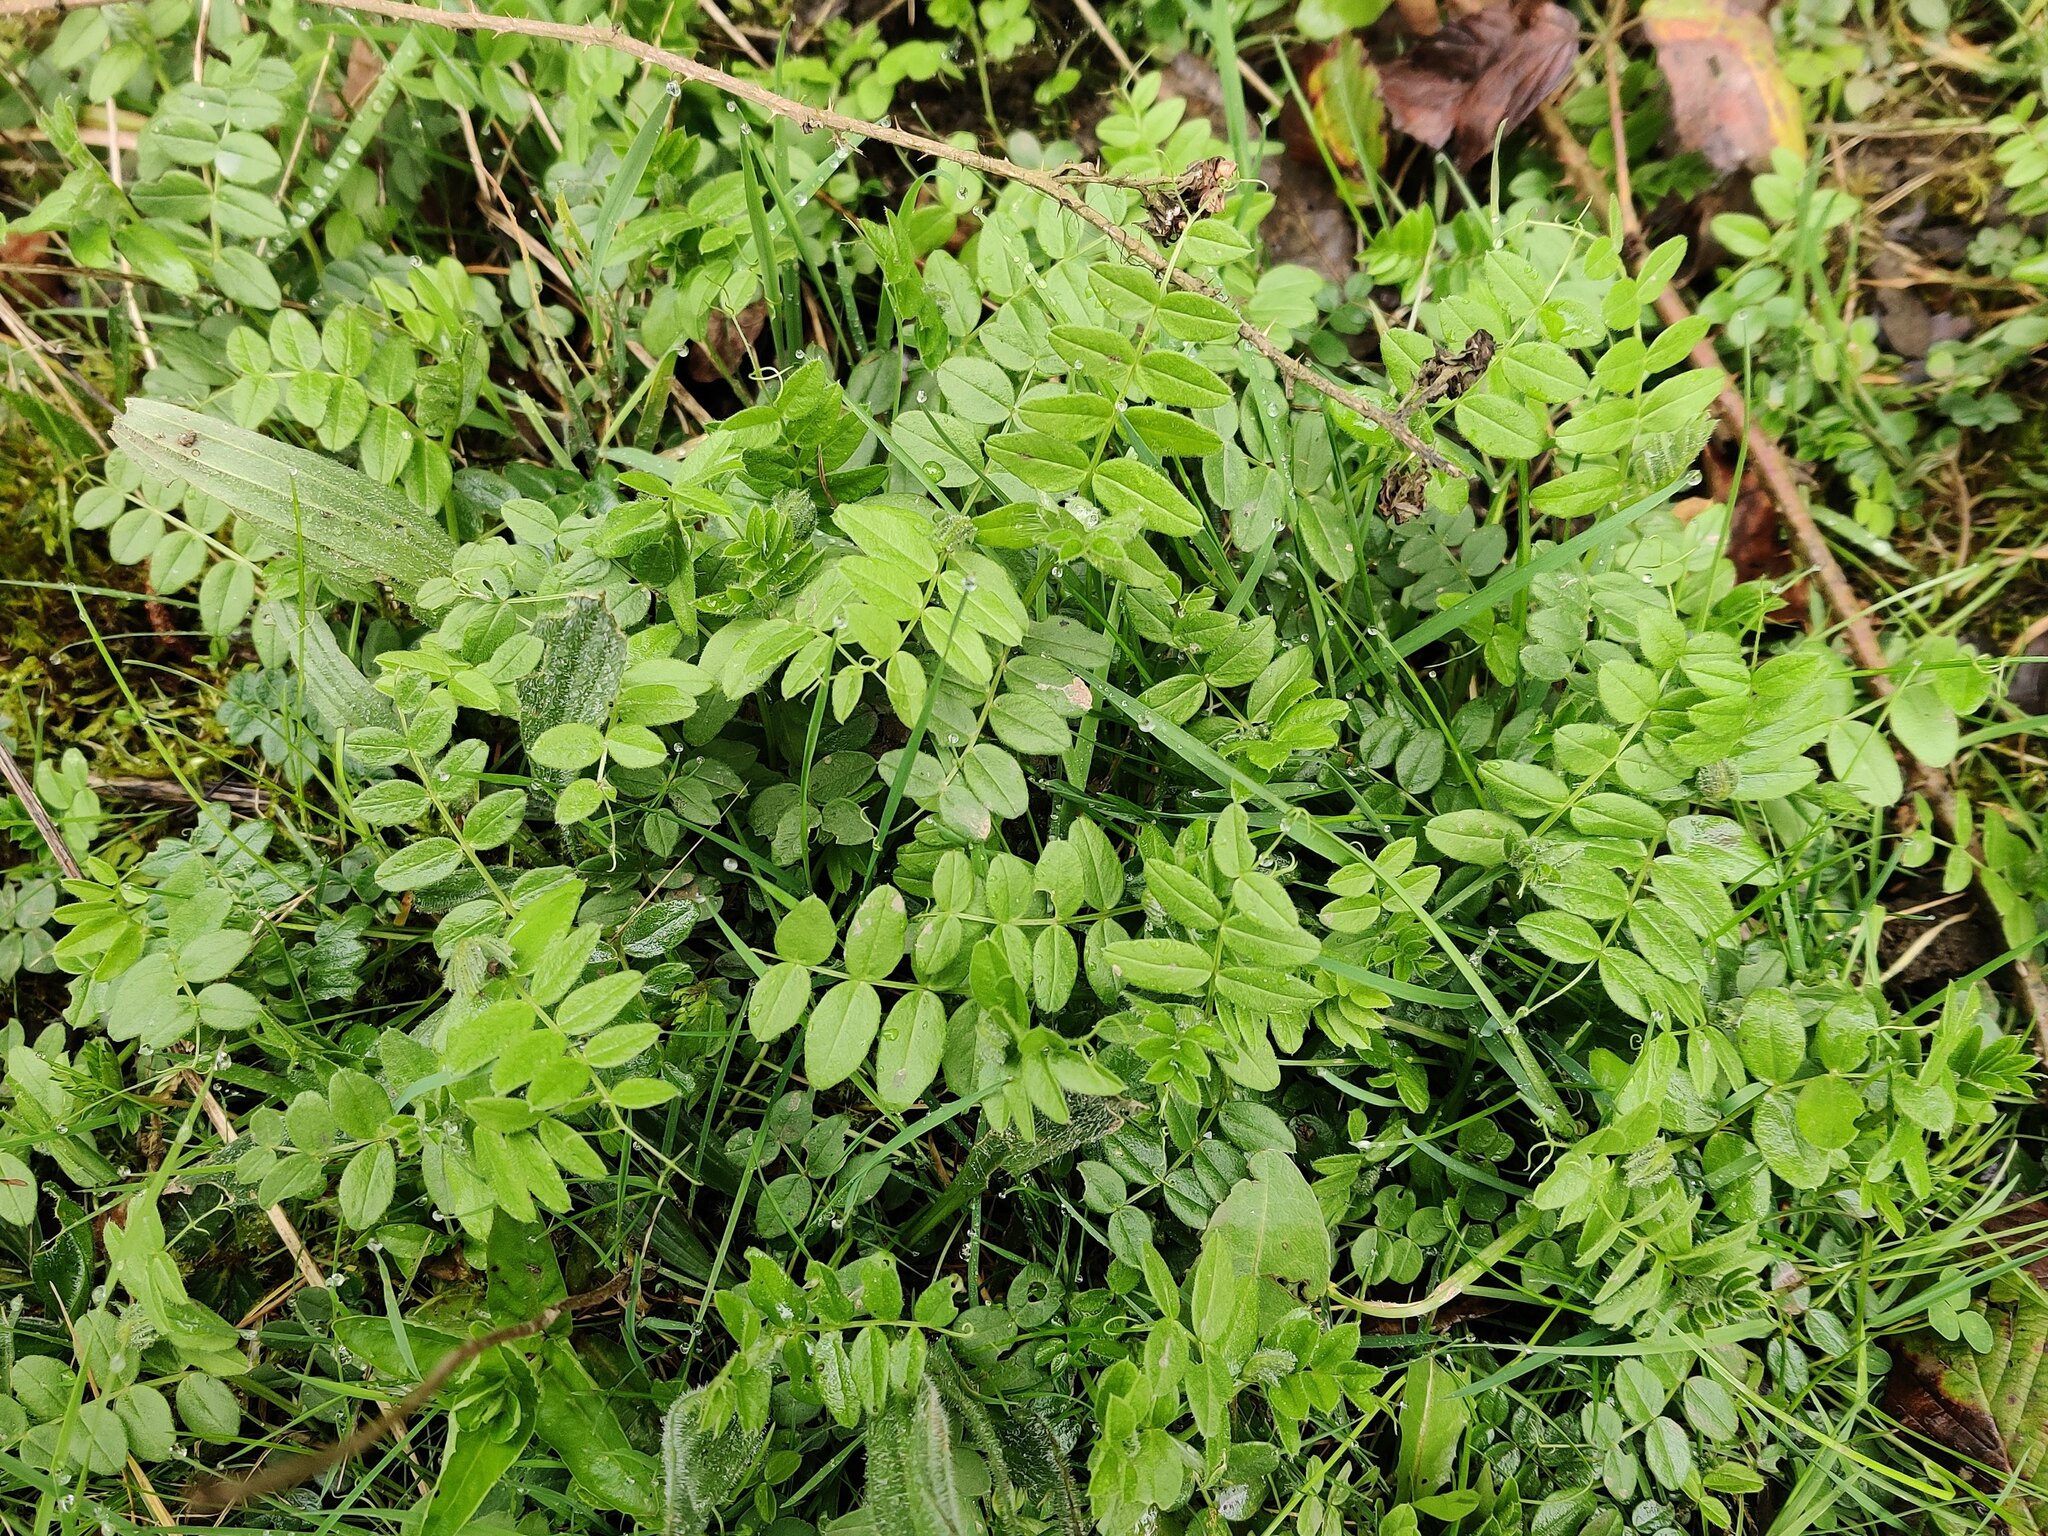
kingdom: Plantae
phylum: Tracheophyta
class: Magnoliopsida
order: Fabales
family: Fabaceae
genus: Vicia
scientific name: Vicia sepium
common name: Bush vetch
